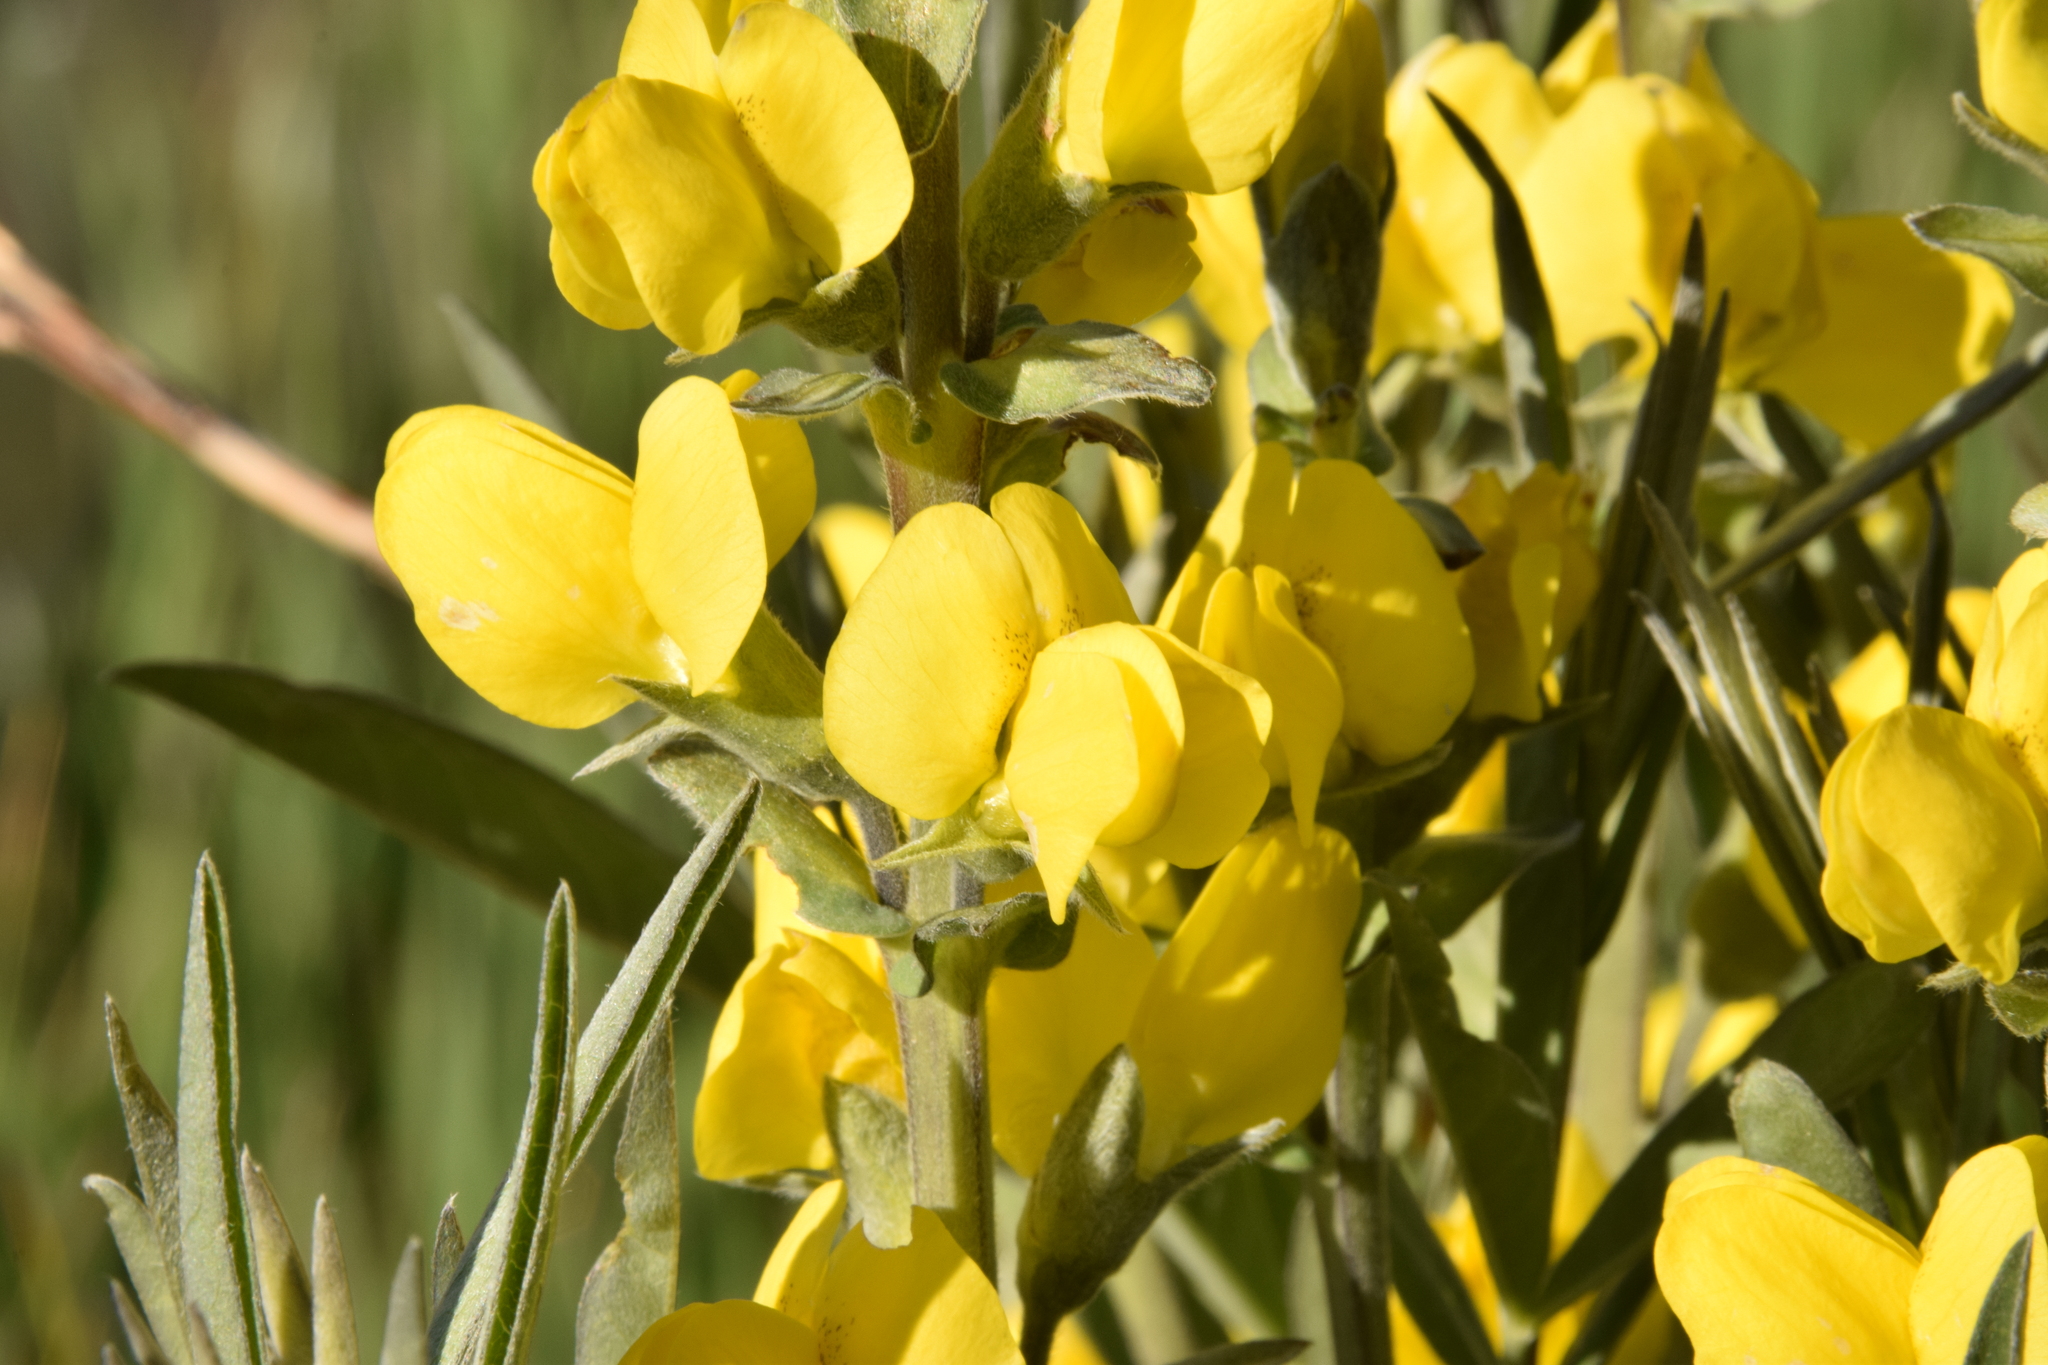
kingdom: Plantae
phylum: Tracheophyta
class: Magnoliopsida
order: Fabales
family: Fabaceae
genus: Thermopsis
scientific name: Thermopsis montana
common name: False lupin
